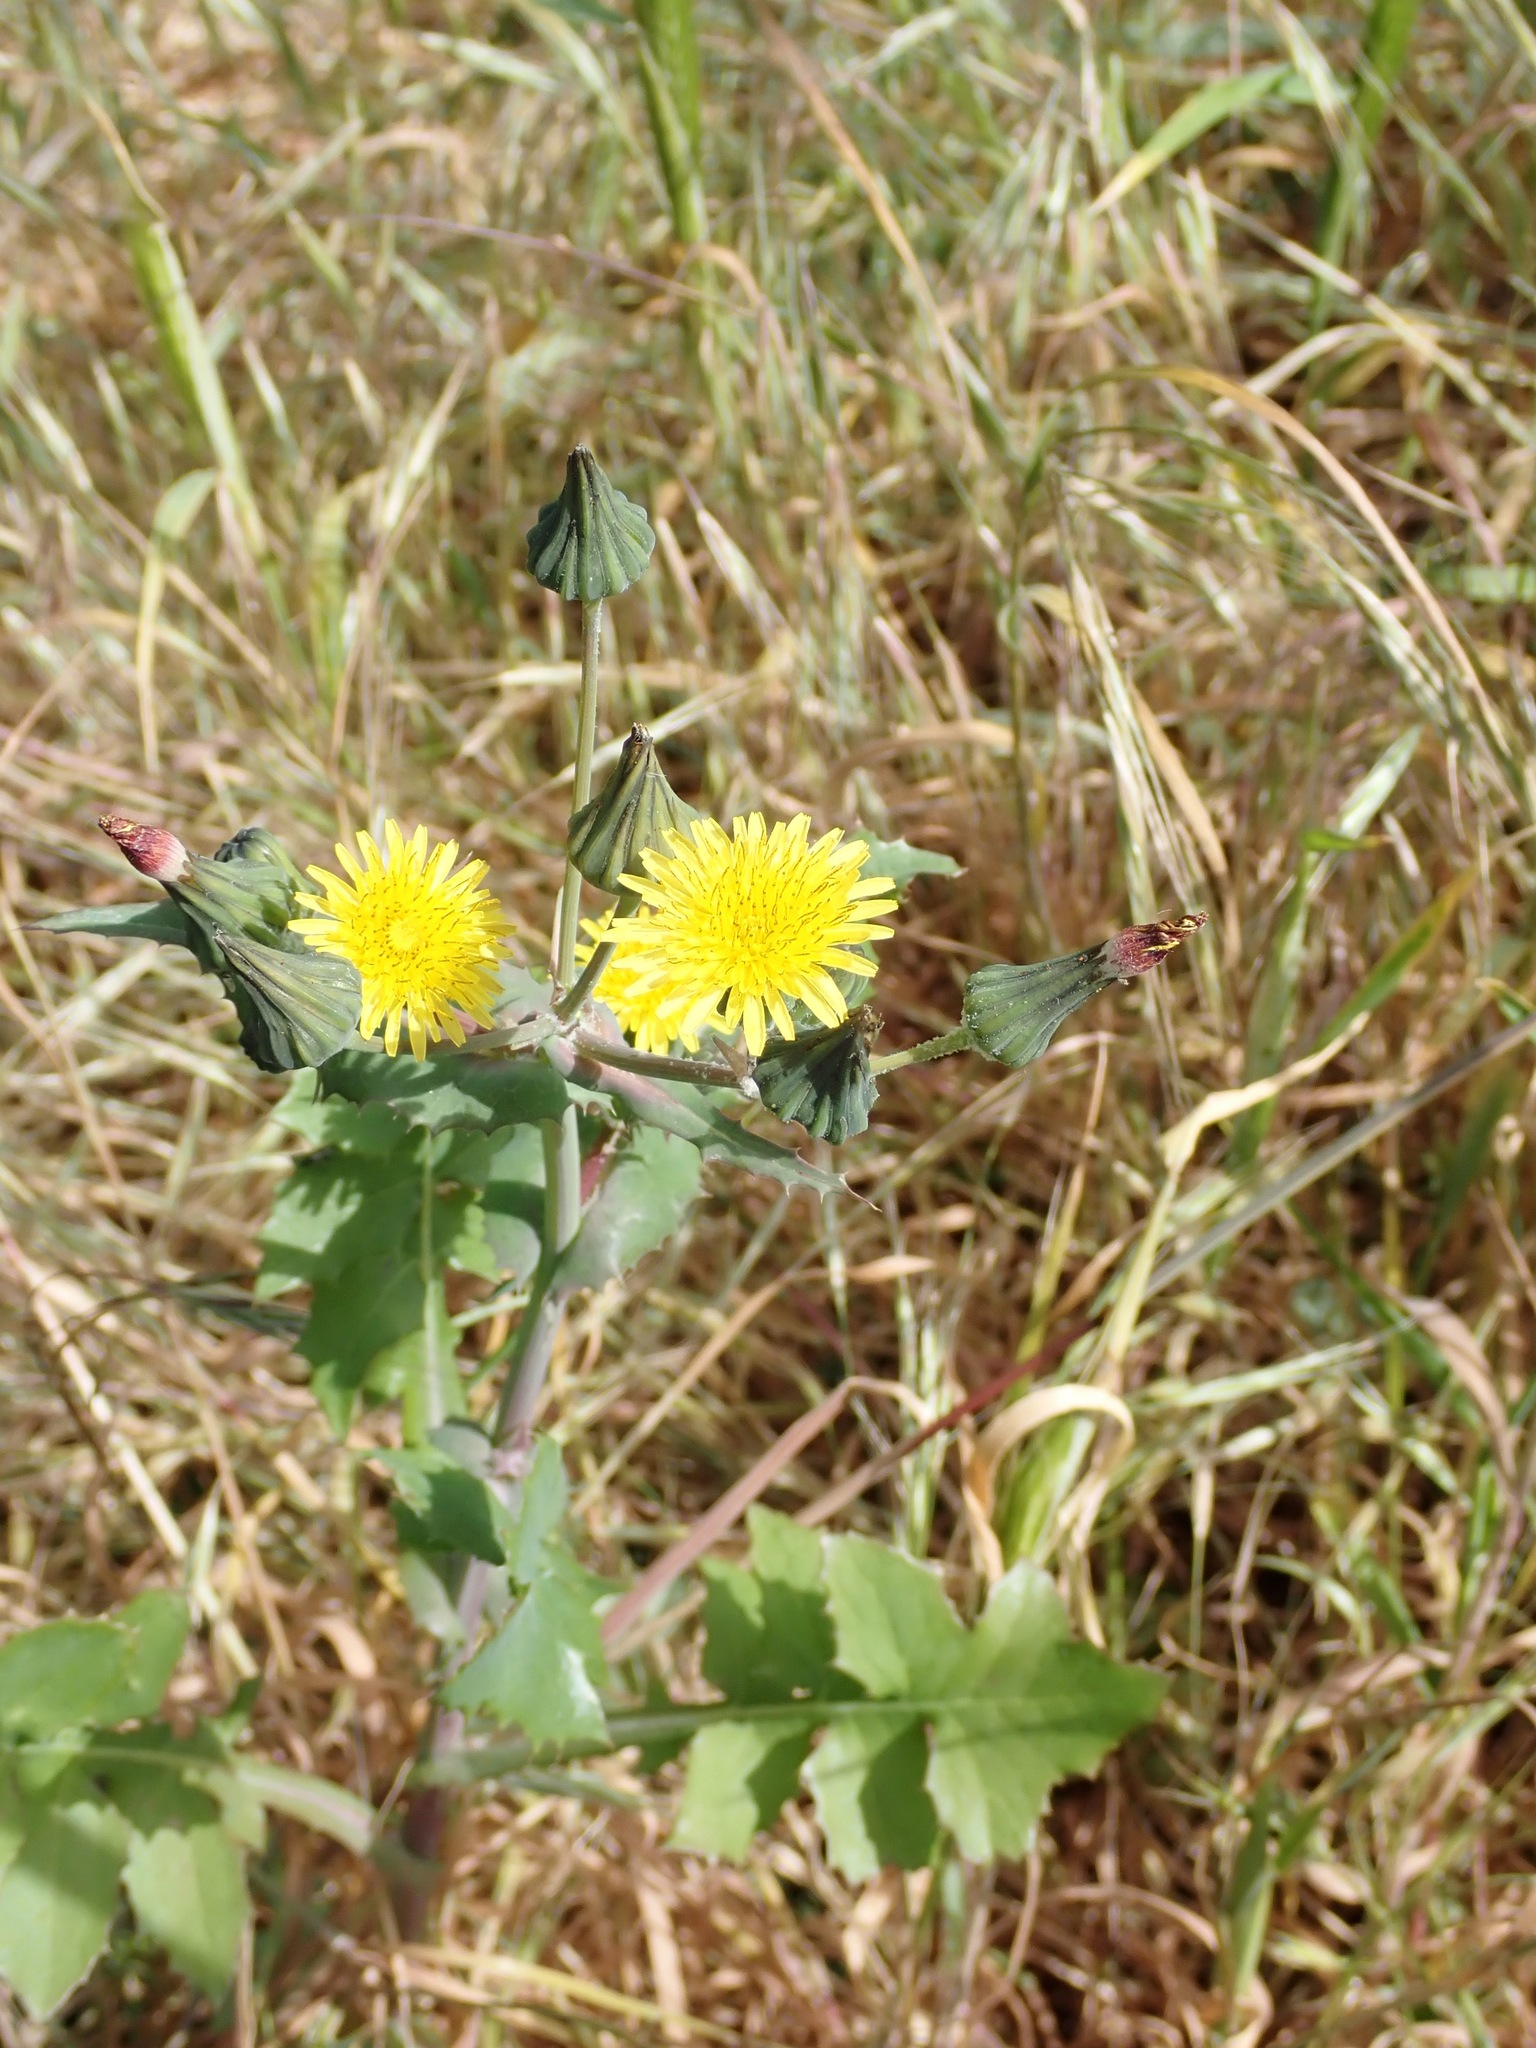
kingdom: Plantae
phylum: Tracheophyta
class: Magnoliopsida
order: Asterales
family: Asteraceae
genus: Sonchus
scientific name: Sonchus oleraceus
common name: Common sowthistle
